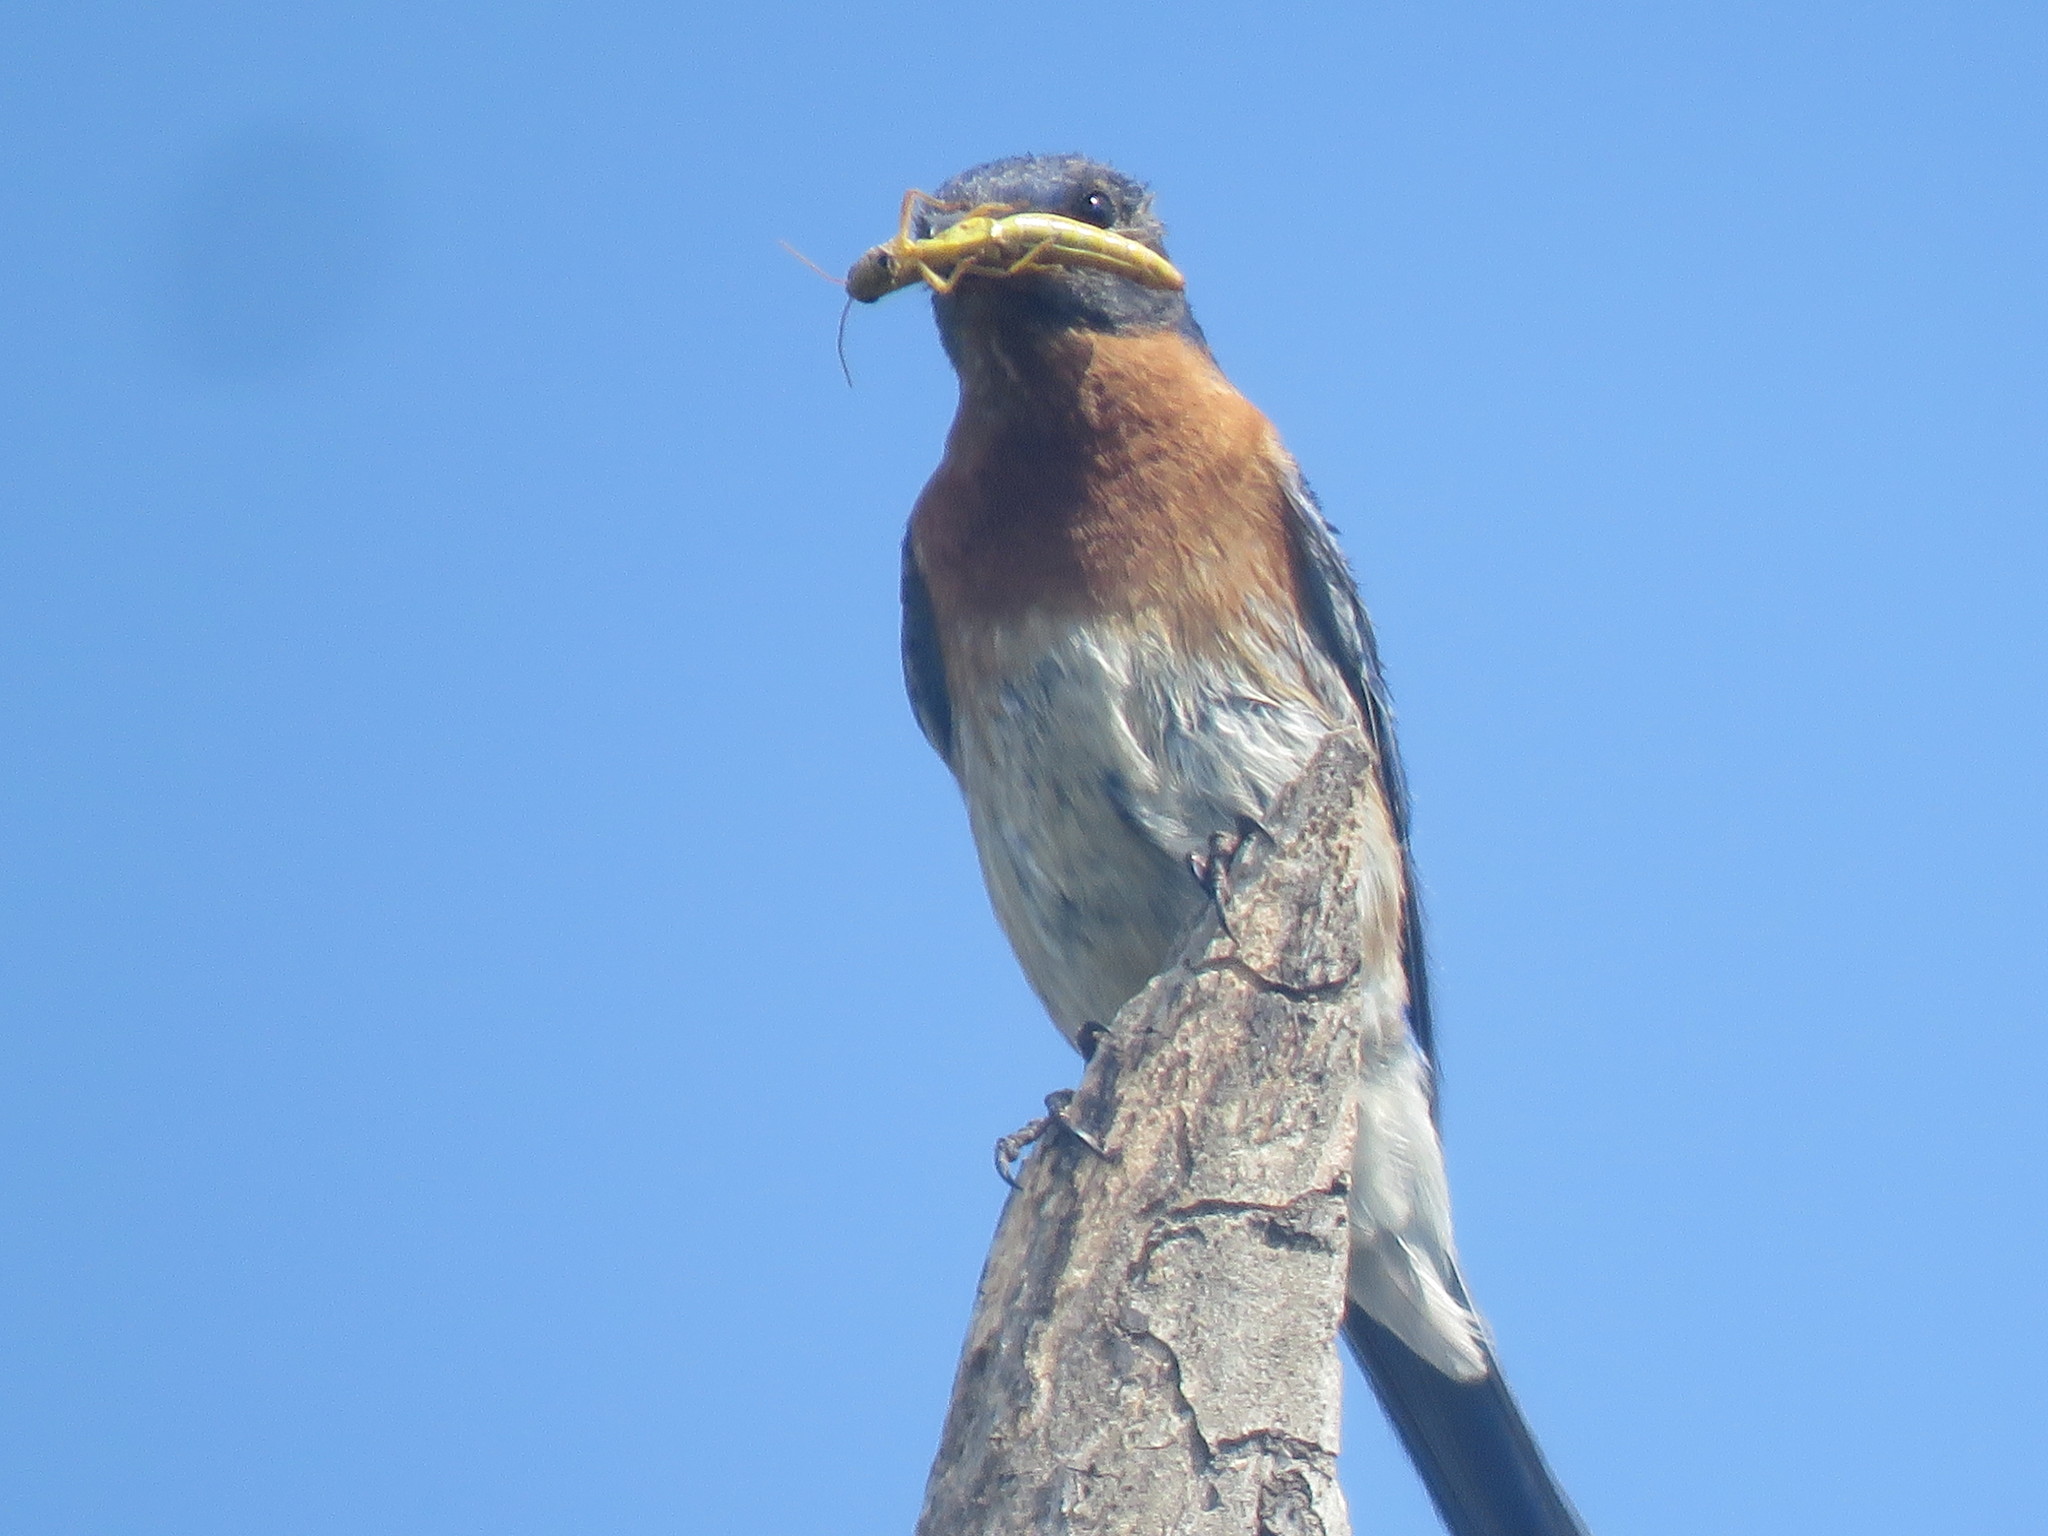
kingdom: Animalia
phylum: Chordata
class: Aves
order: Passeriformes
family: Turdidae
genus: Sialia
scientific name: Sialia sialis
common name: Eastern bluebird
